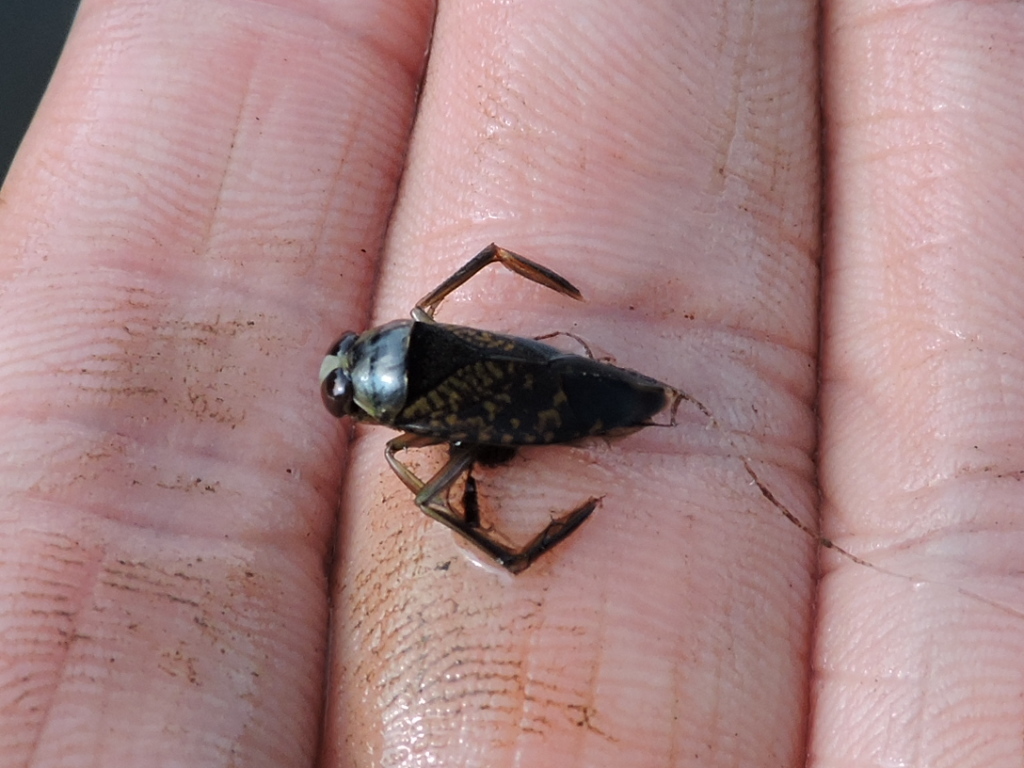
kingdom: Animalia
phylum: Arthropoda
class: Insecta
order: Hemiptera
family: Notonectidae
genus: Notonecta
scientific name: Notonecta irrorata
